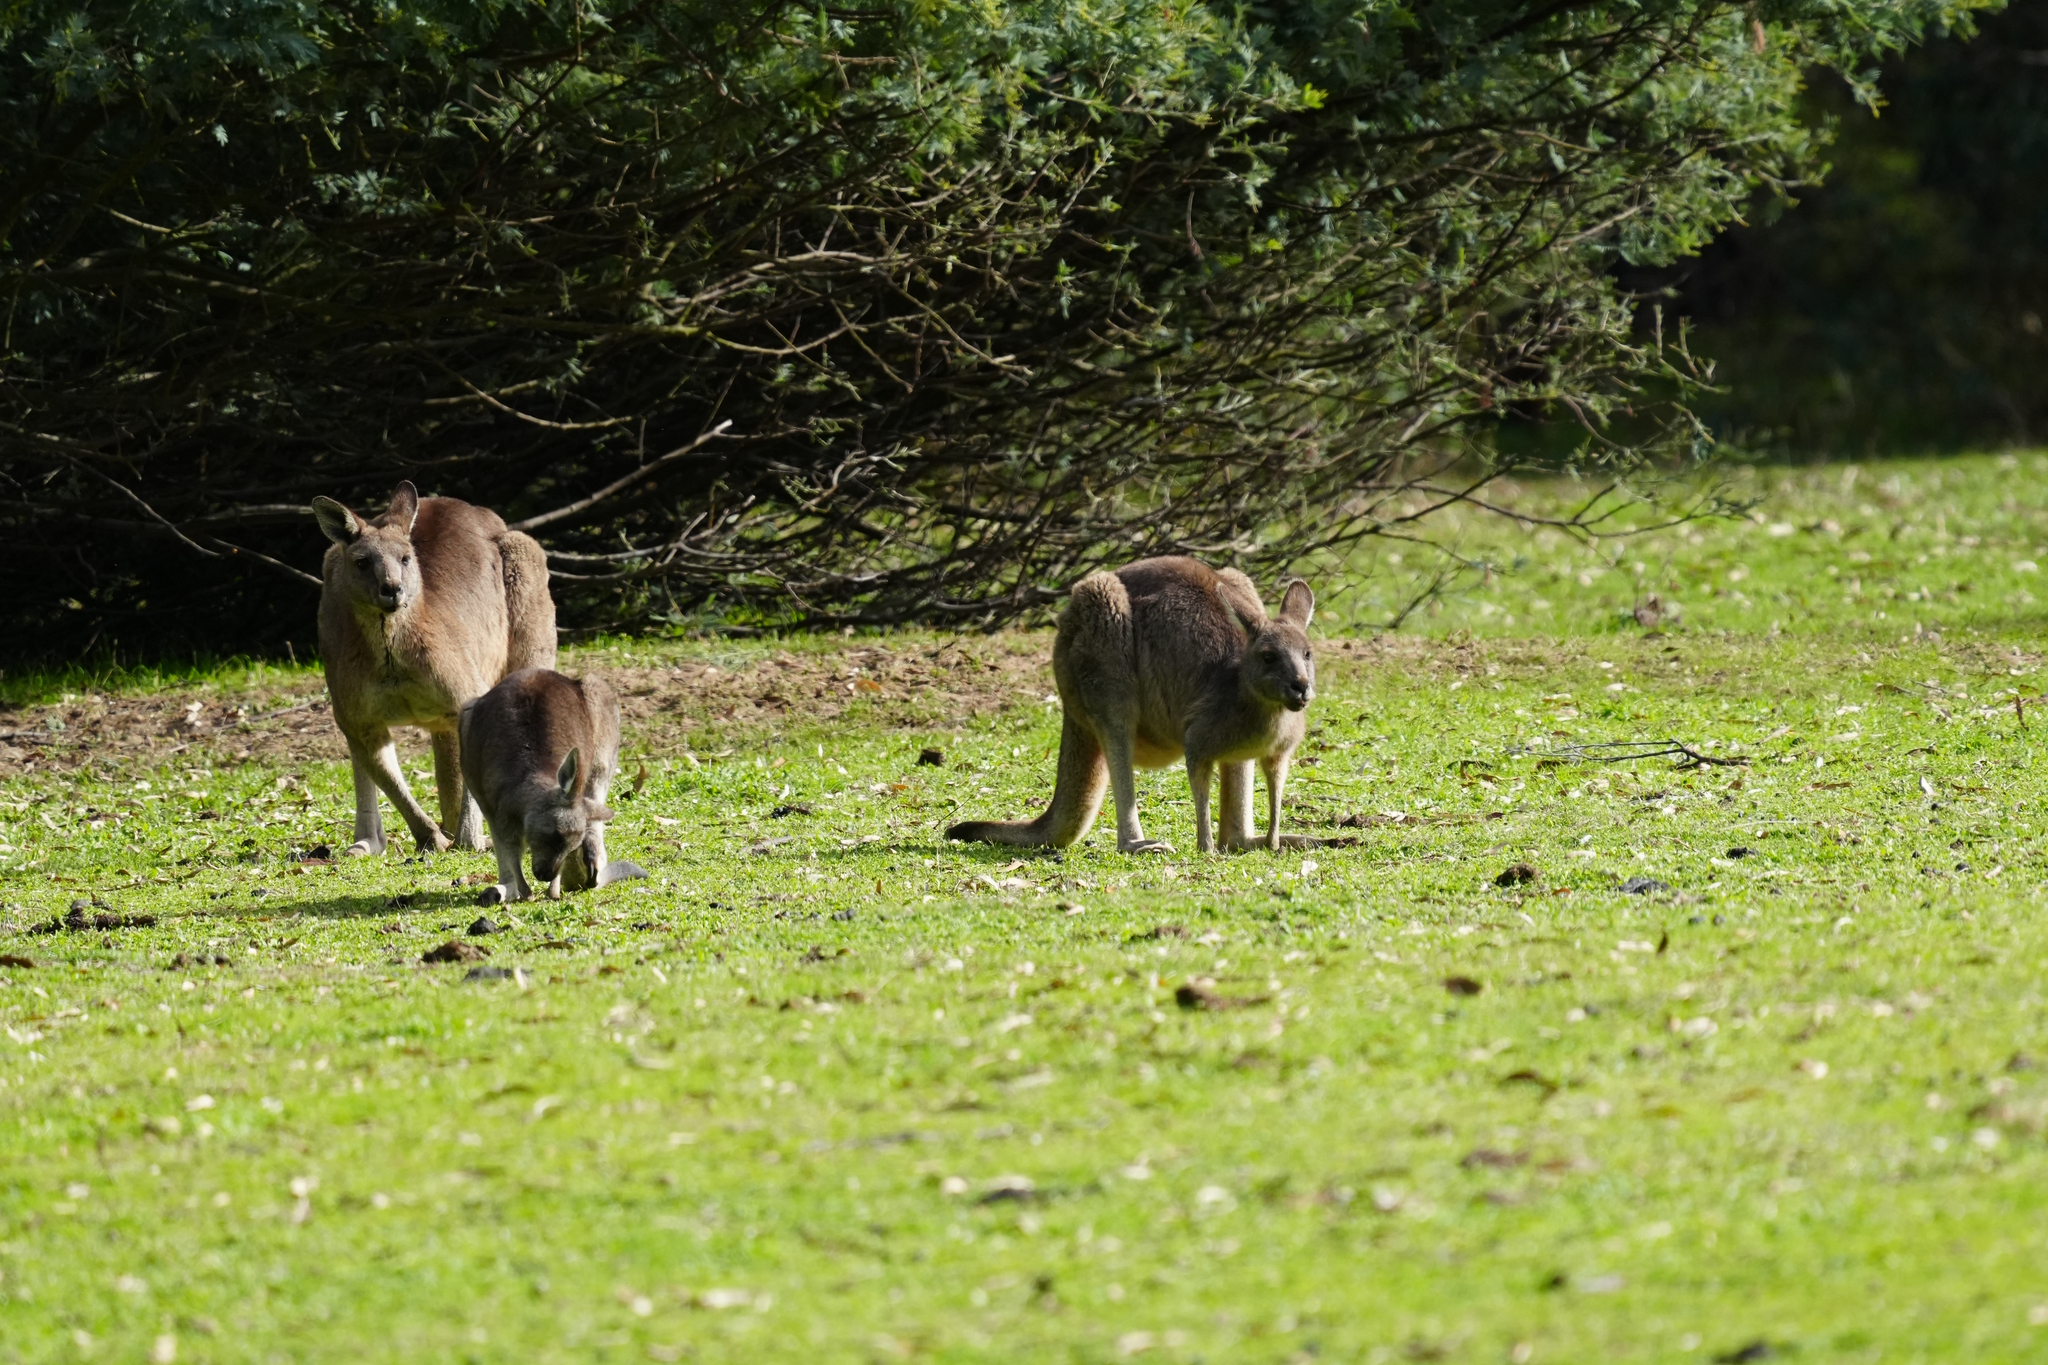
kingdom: Animalia
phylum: Chordata
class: Mammalia
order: Diprotodontia
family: Macropodidae
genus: Macropus
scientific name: Macropus giganteus
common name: Eastern grey kangaroo
